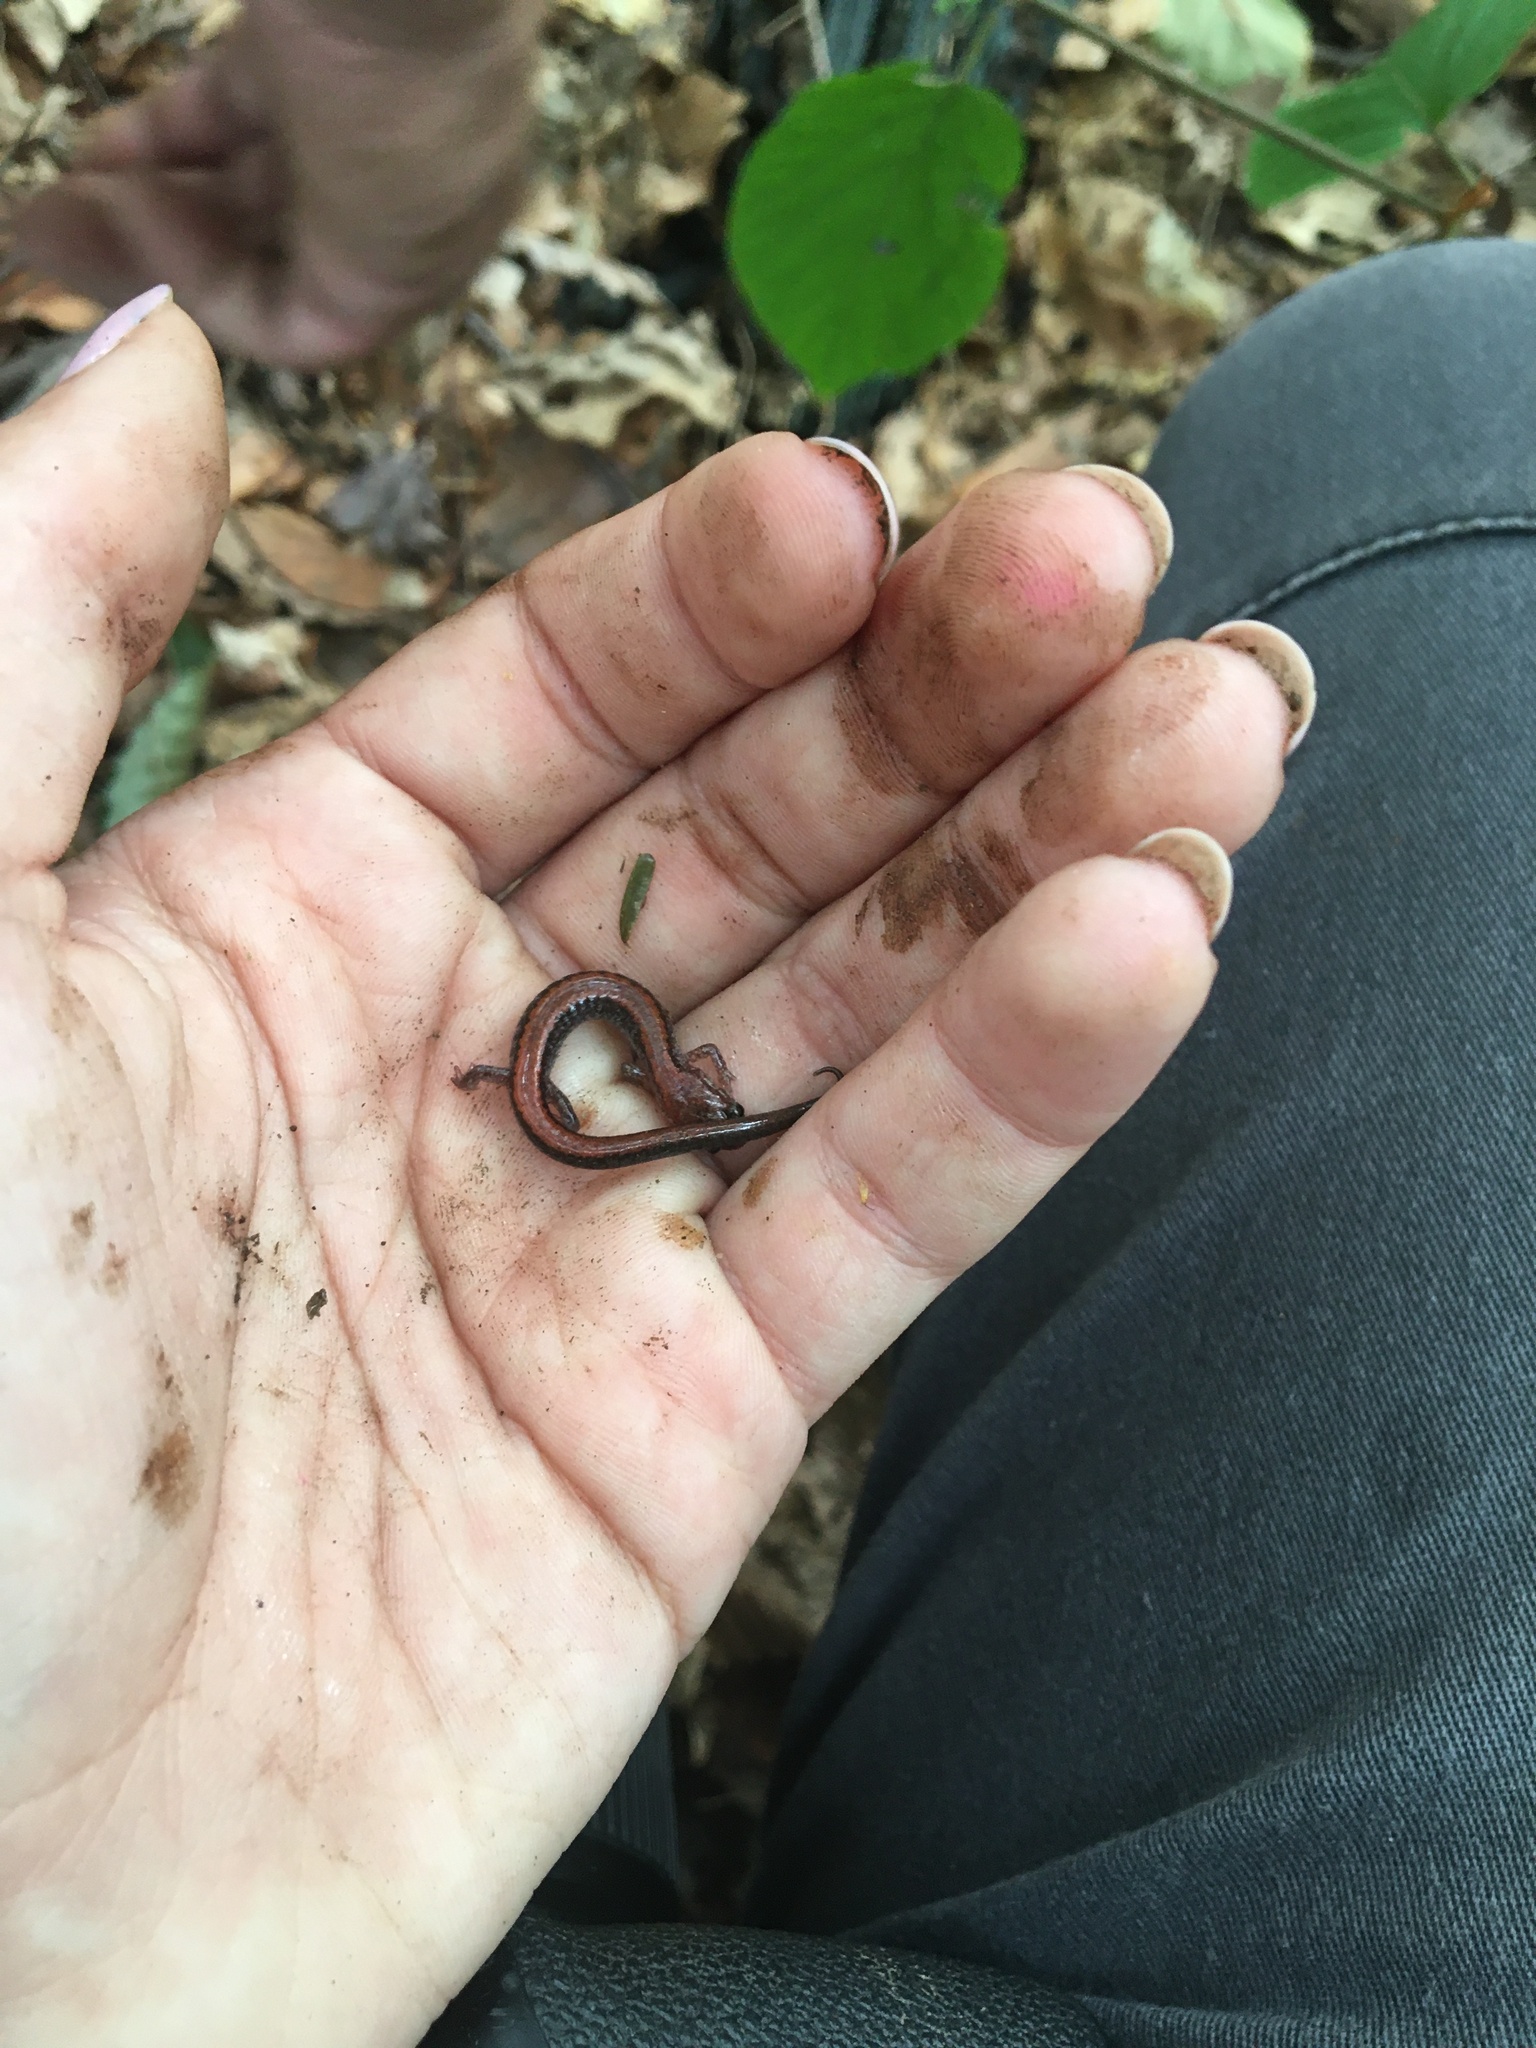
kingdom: Animalia
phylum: Chordata
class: Amphibia
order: Caudata
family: Plethodontidae
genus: Plethodon
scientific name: Plethodon cinereus
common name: Redback salamander
